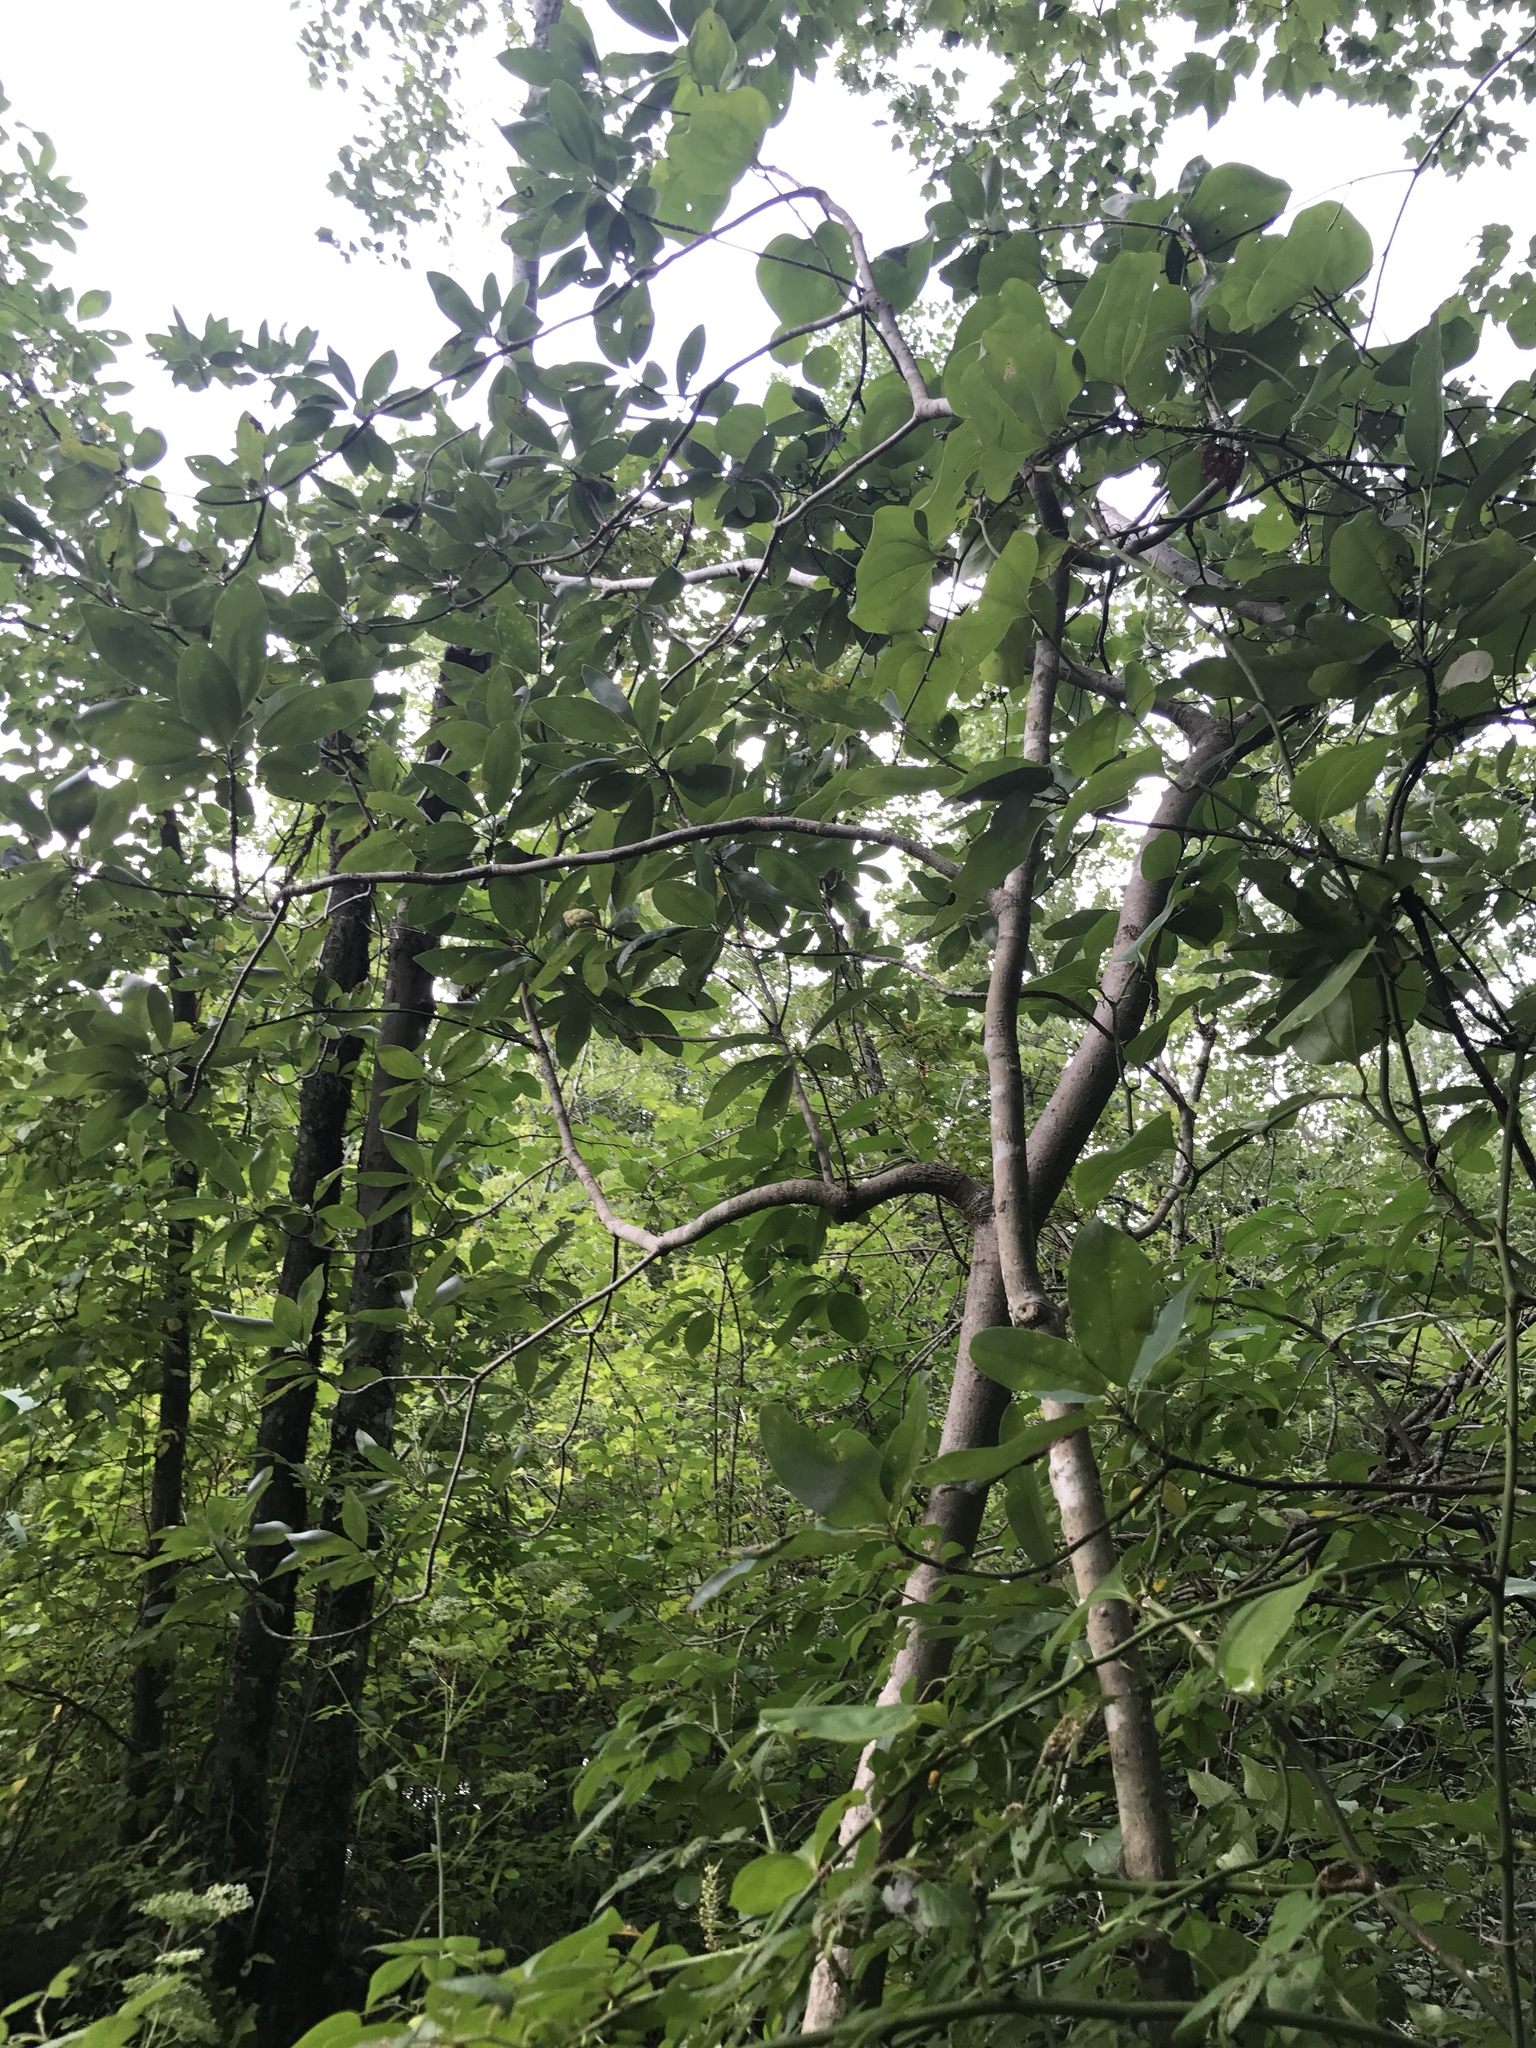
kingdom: Plantae
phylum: Tracheophyta
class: Magnoliopsida
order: Magnoliales
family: Magnoliaceae
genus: Magnolia
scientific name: Magnolia virginiana
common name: Swamp bay
